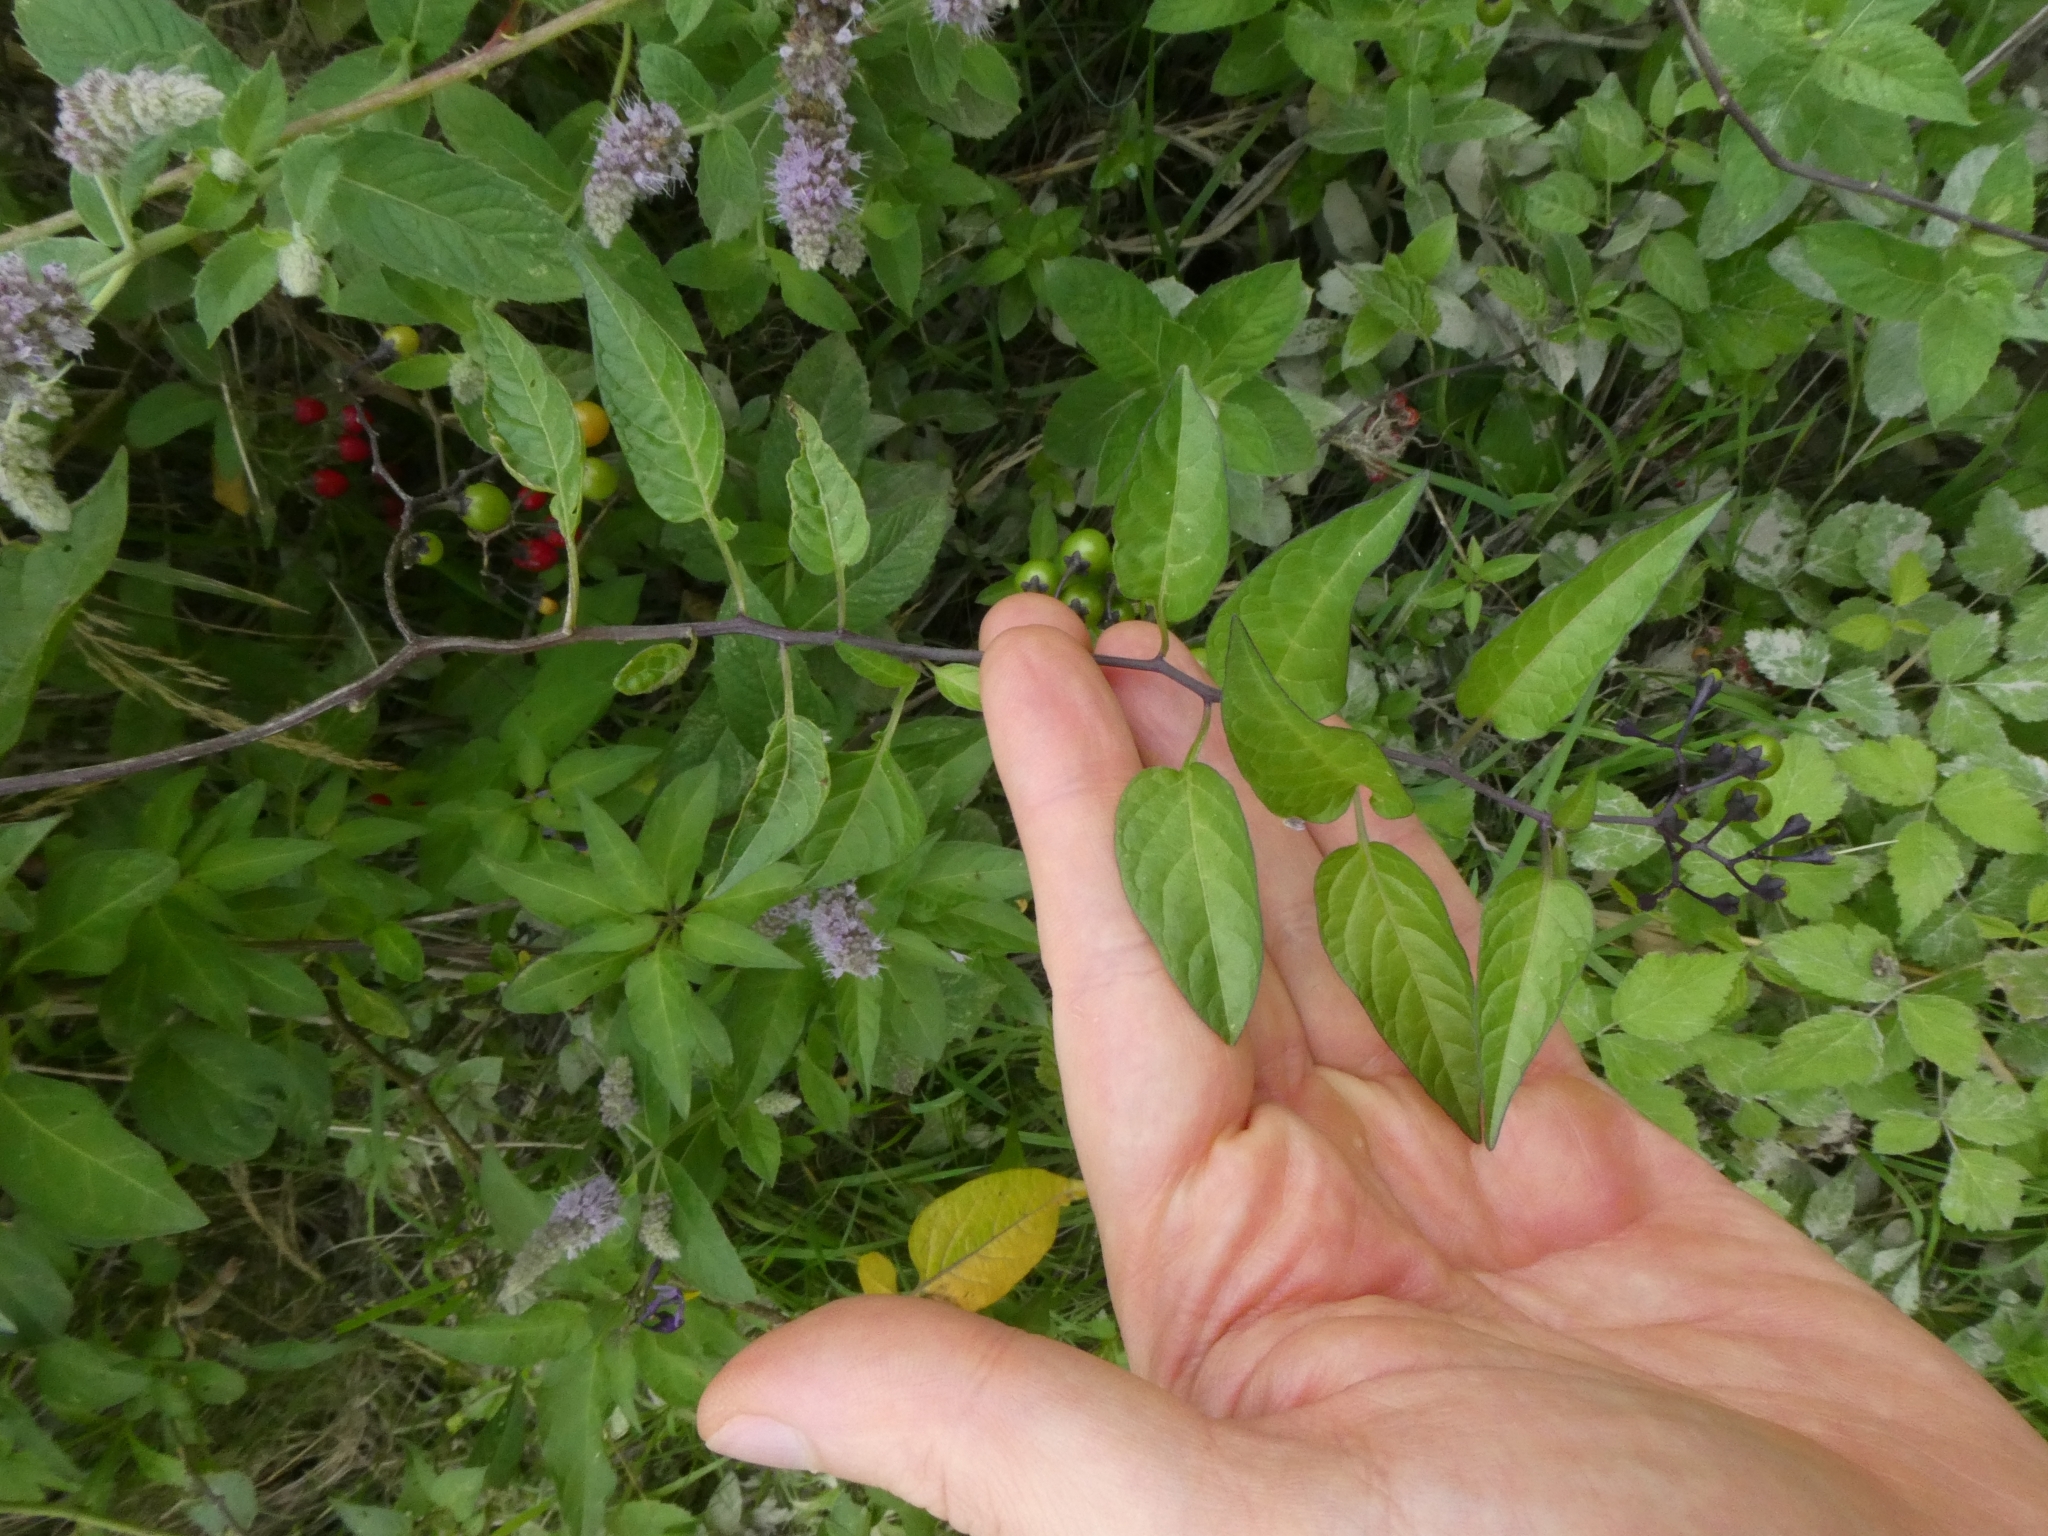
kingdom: Plantae
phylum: Tracheophyta
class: Magnoliopsida
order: Solanales
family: Solanaceae
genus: Solanum
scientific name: Solanum dulcamara
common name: Climbing nightshade
